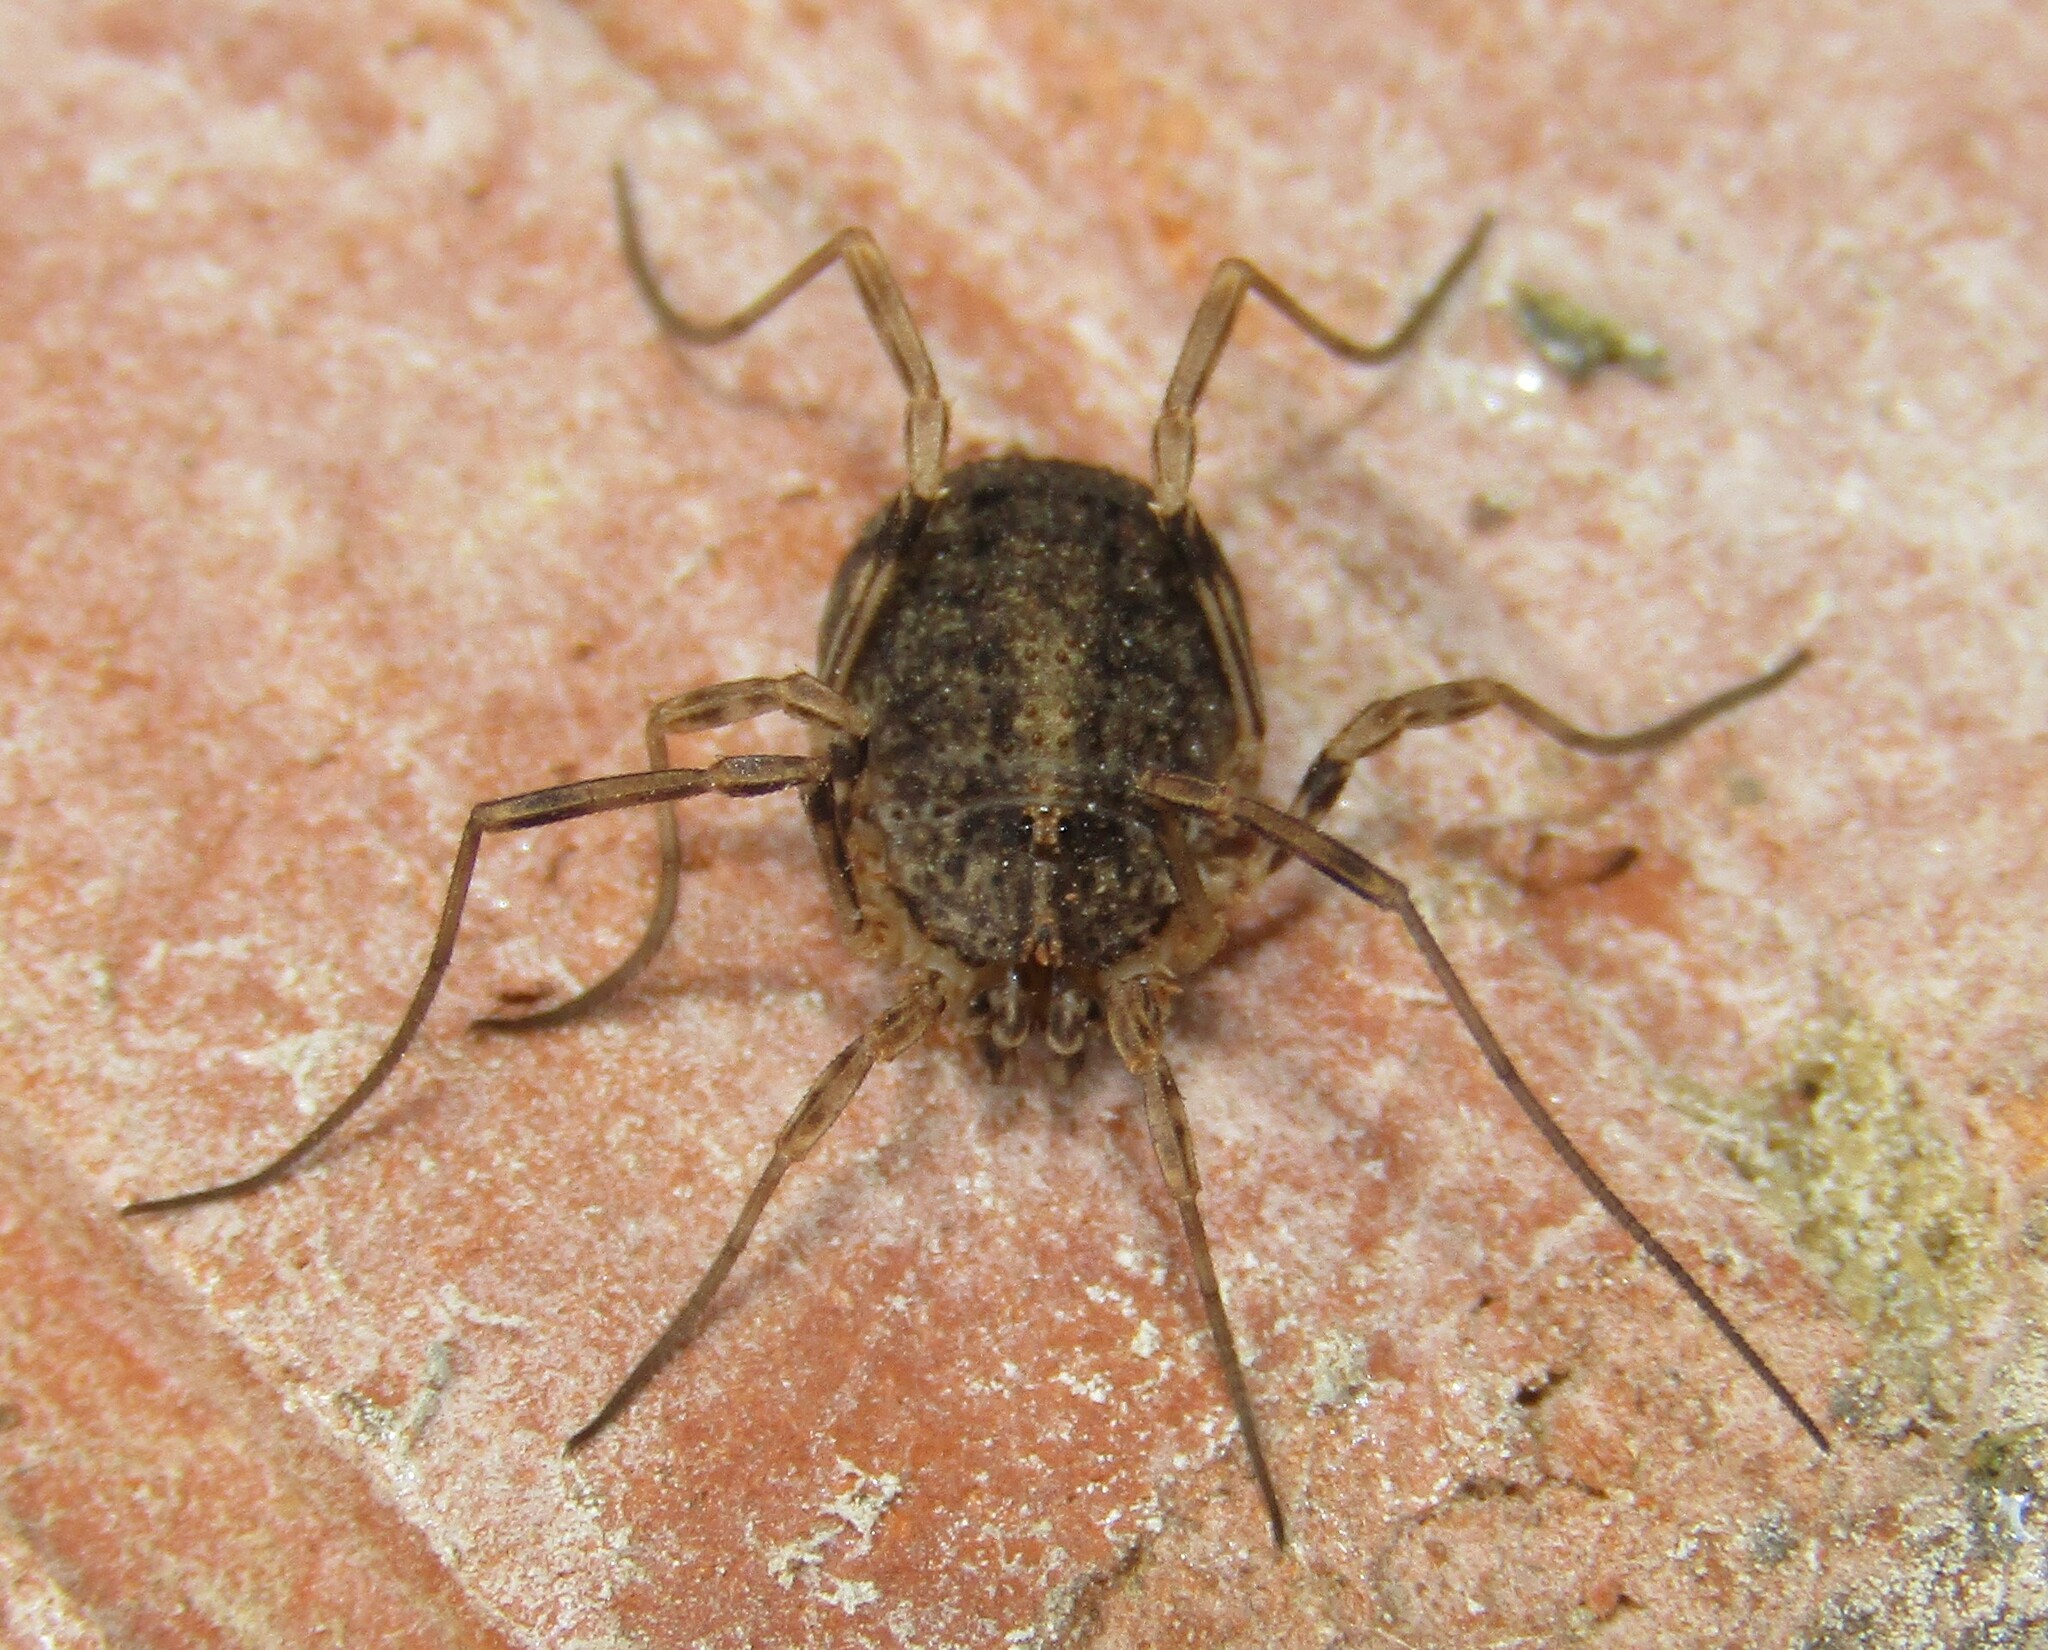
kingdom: Animalia
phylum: Arthropoda
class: Arachnida
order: Opiliones
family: Phalangiidae
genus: Odiellus
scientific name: Odiellus lendlii
